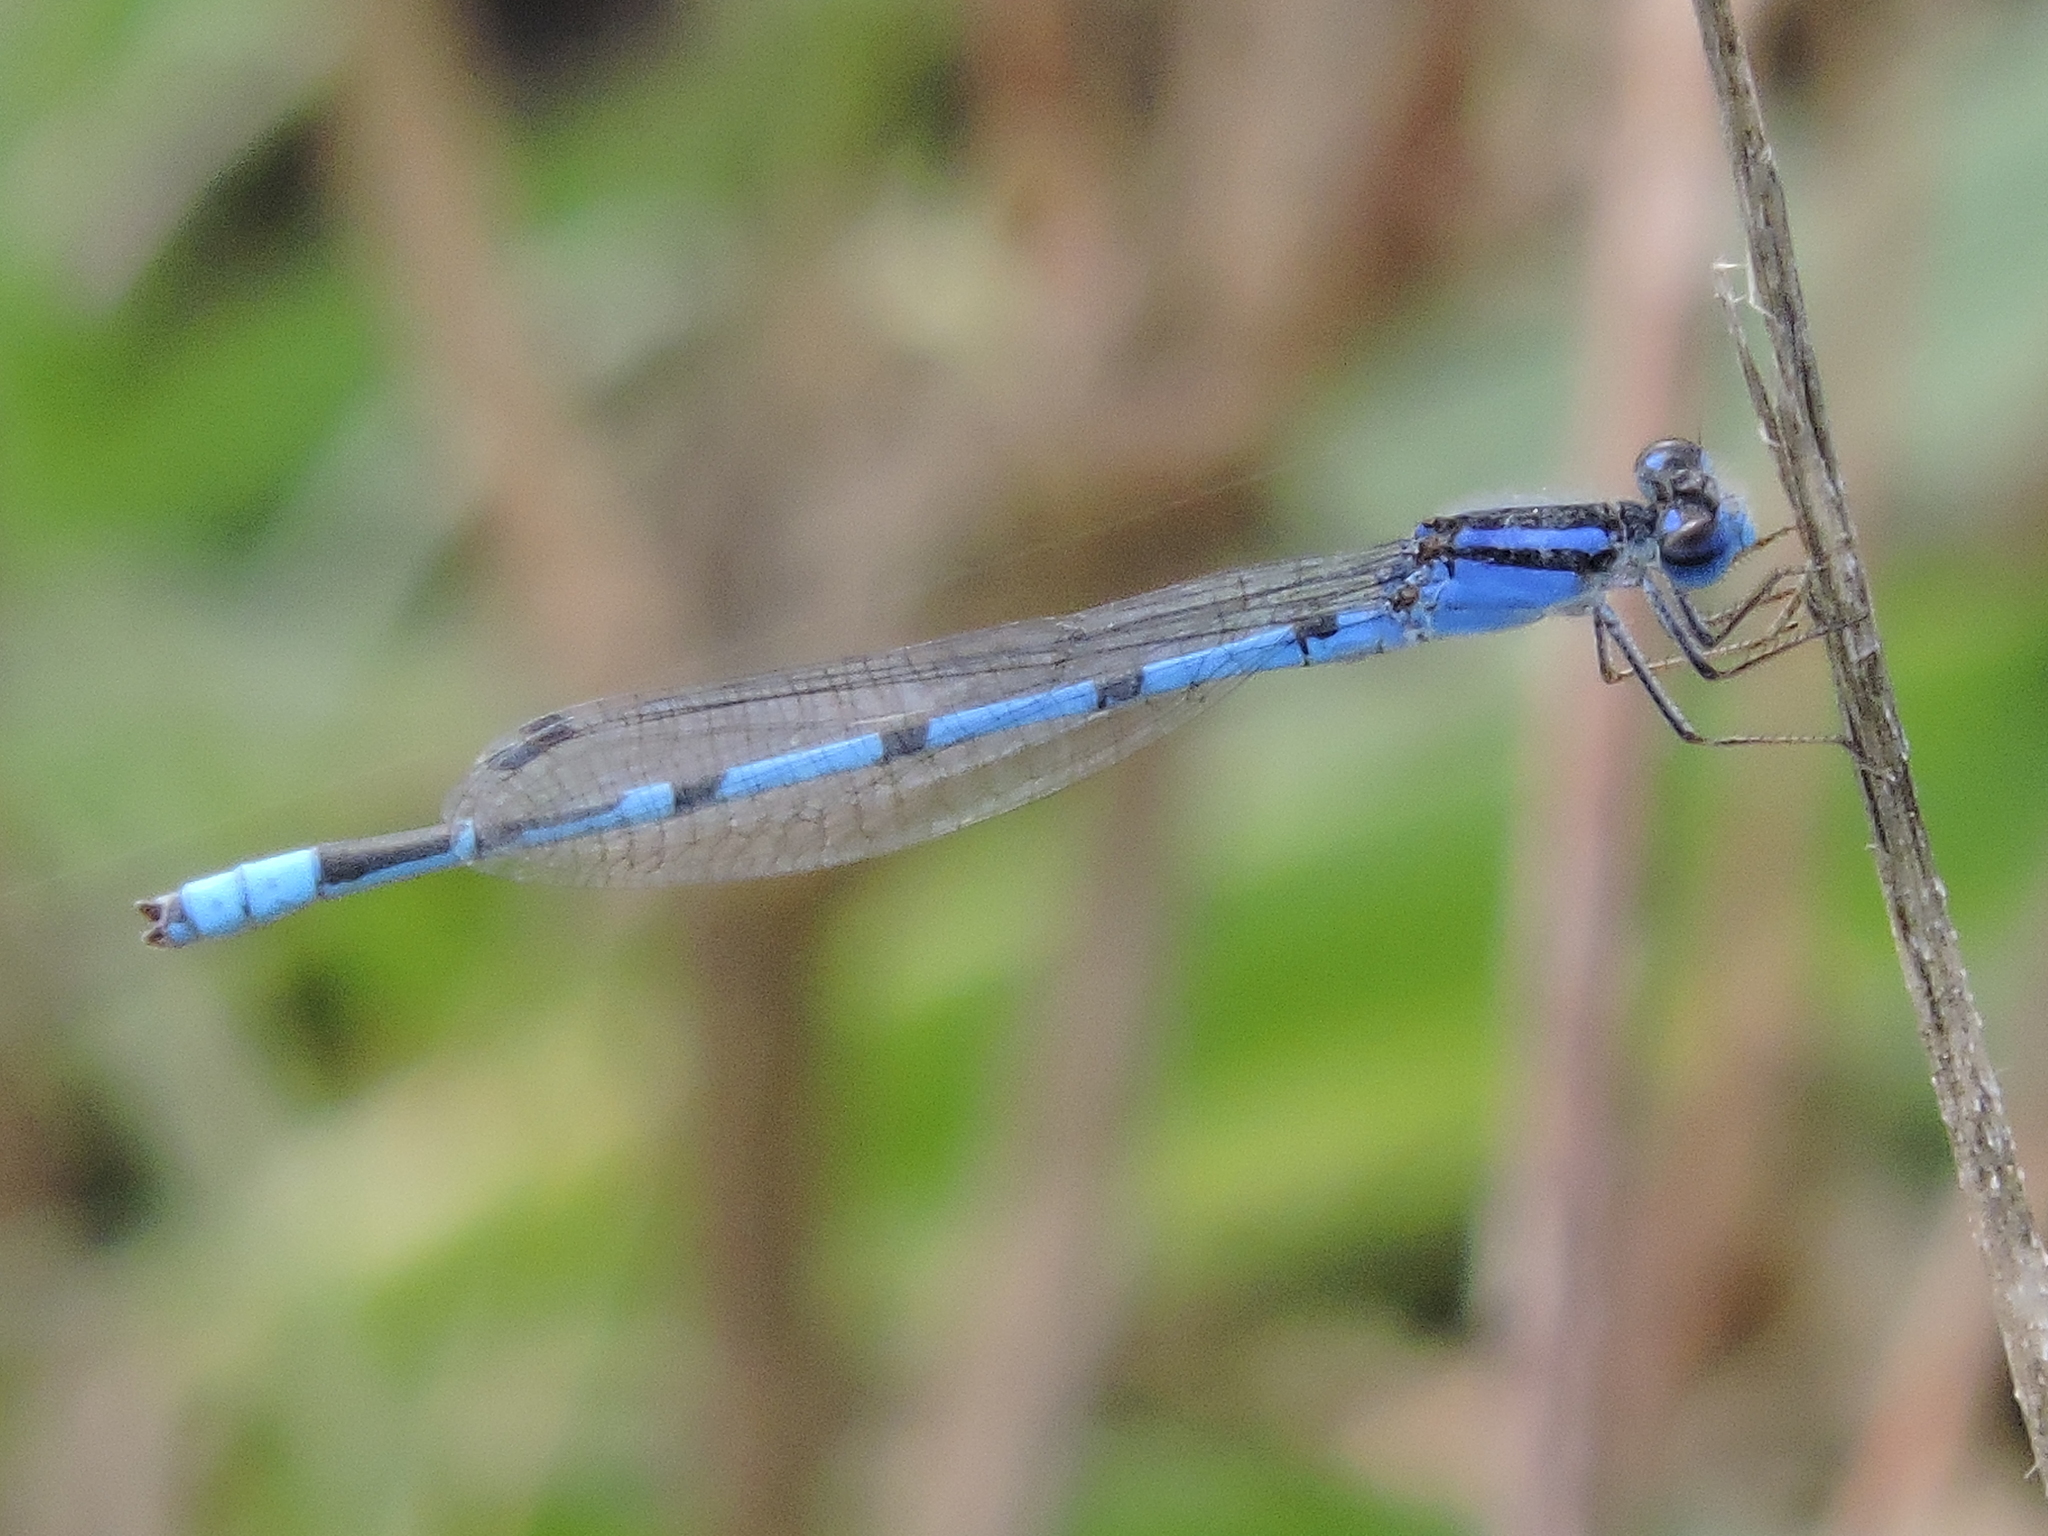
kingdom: Animalia
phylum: Arthropoda
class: Insecta
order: Odonata
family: Coenagrionidae
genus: Enallagma
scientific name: Enallagma civile
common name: Damselfly
